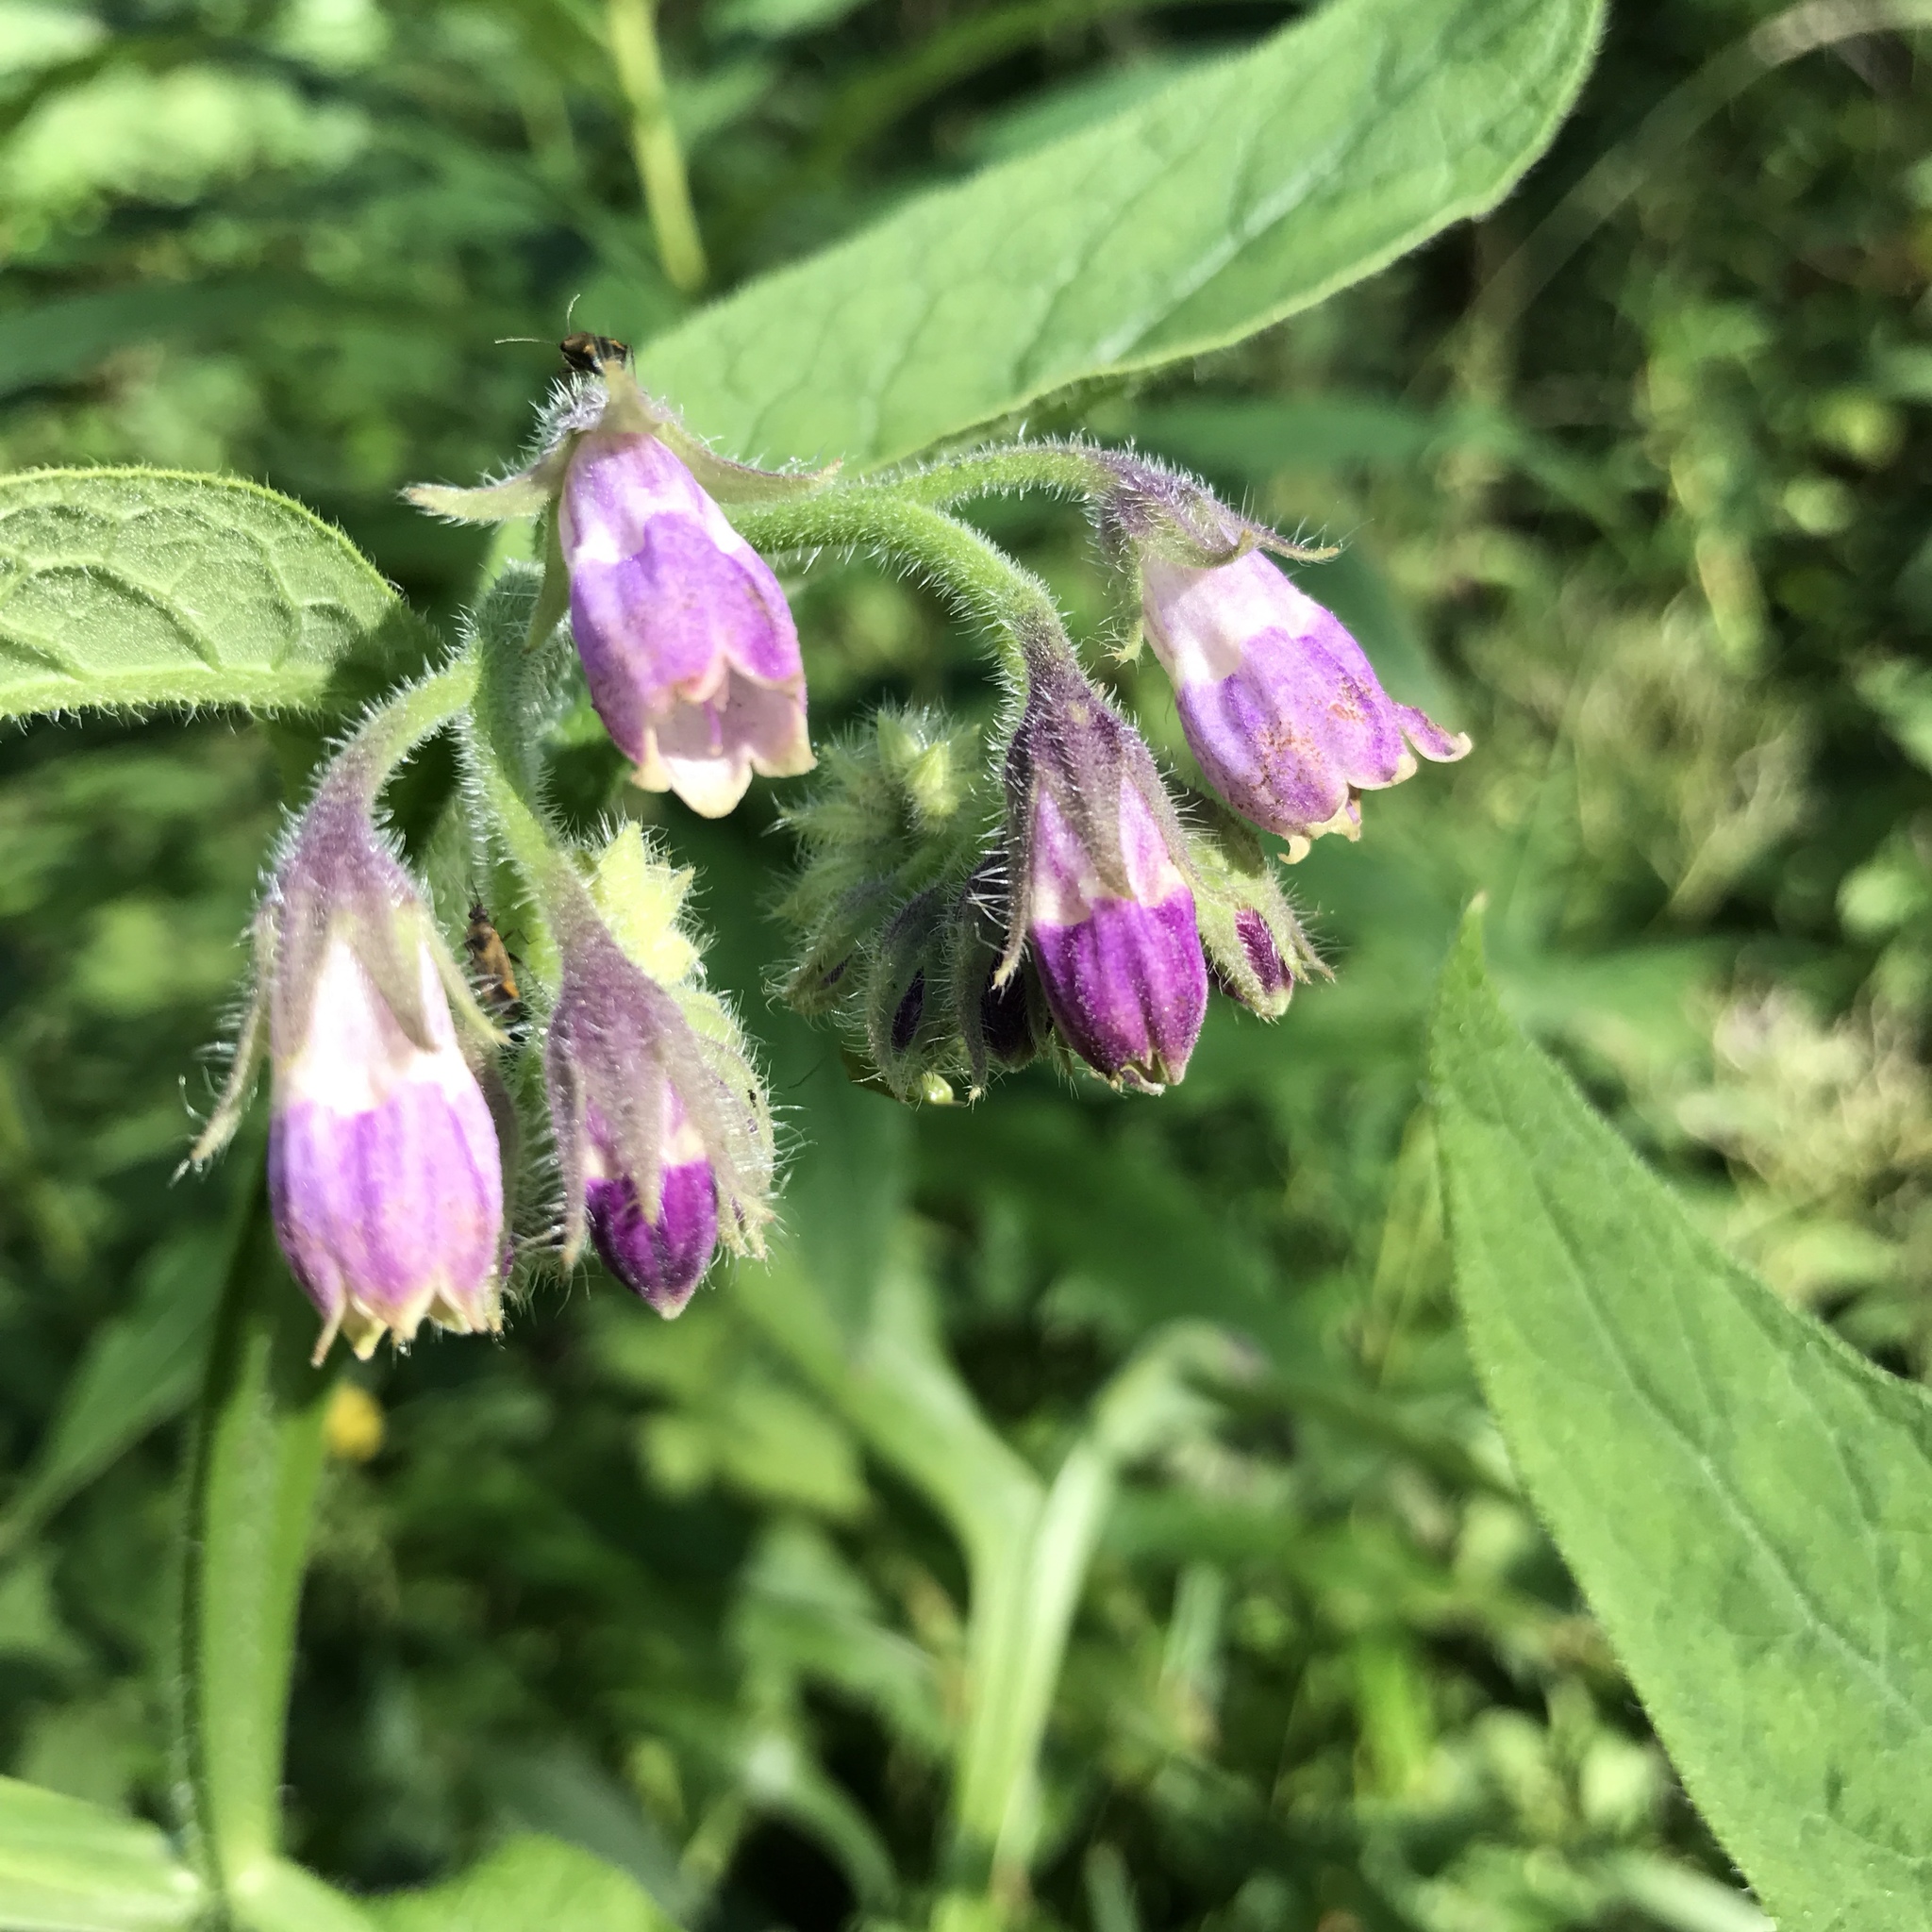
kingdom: Plantae
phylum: Tracheophyta
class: Magnoliopsida
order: Boraginales
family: Boraginaceae
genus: Symphytum
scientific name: Symphytum officinale
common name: Common comfrey
